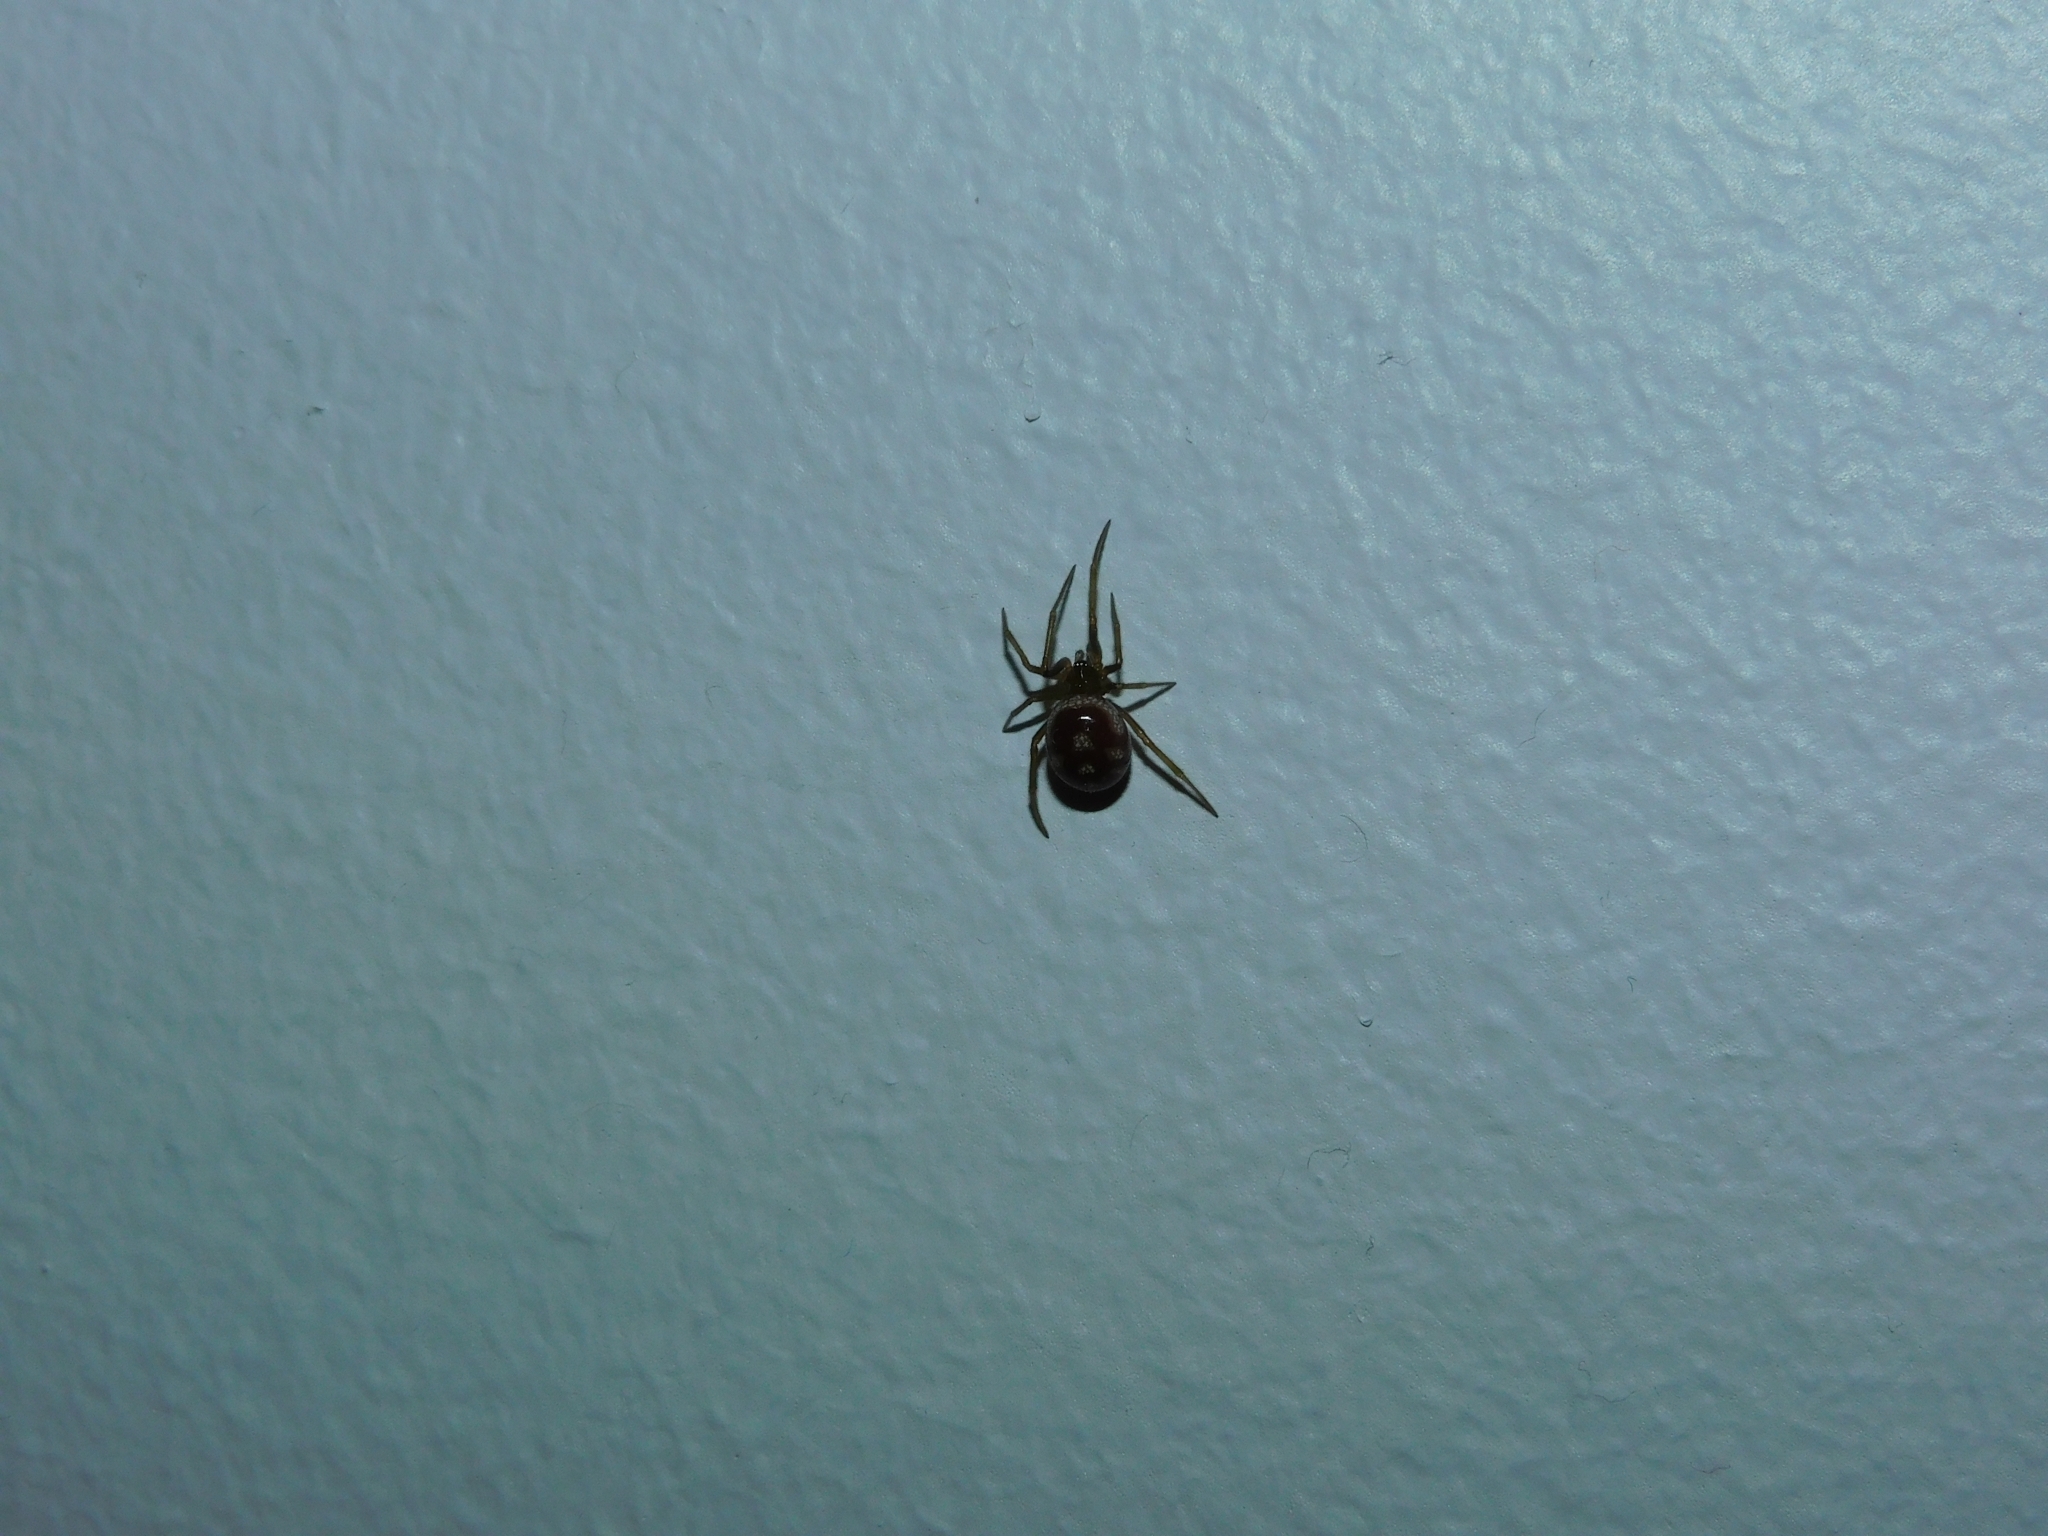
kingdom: Animalia
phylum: Arthropoda
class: Arachnida
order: Araneae
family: Theridiidae
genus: Steatoda
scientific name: Steatoda grossa
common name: False black widow
